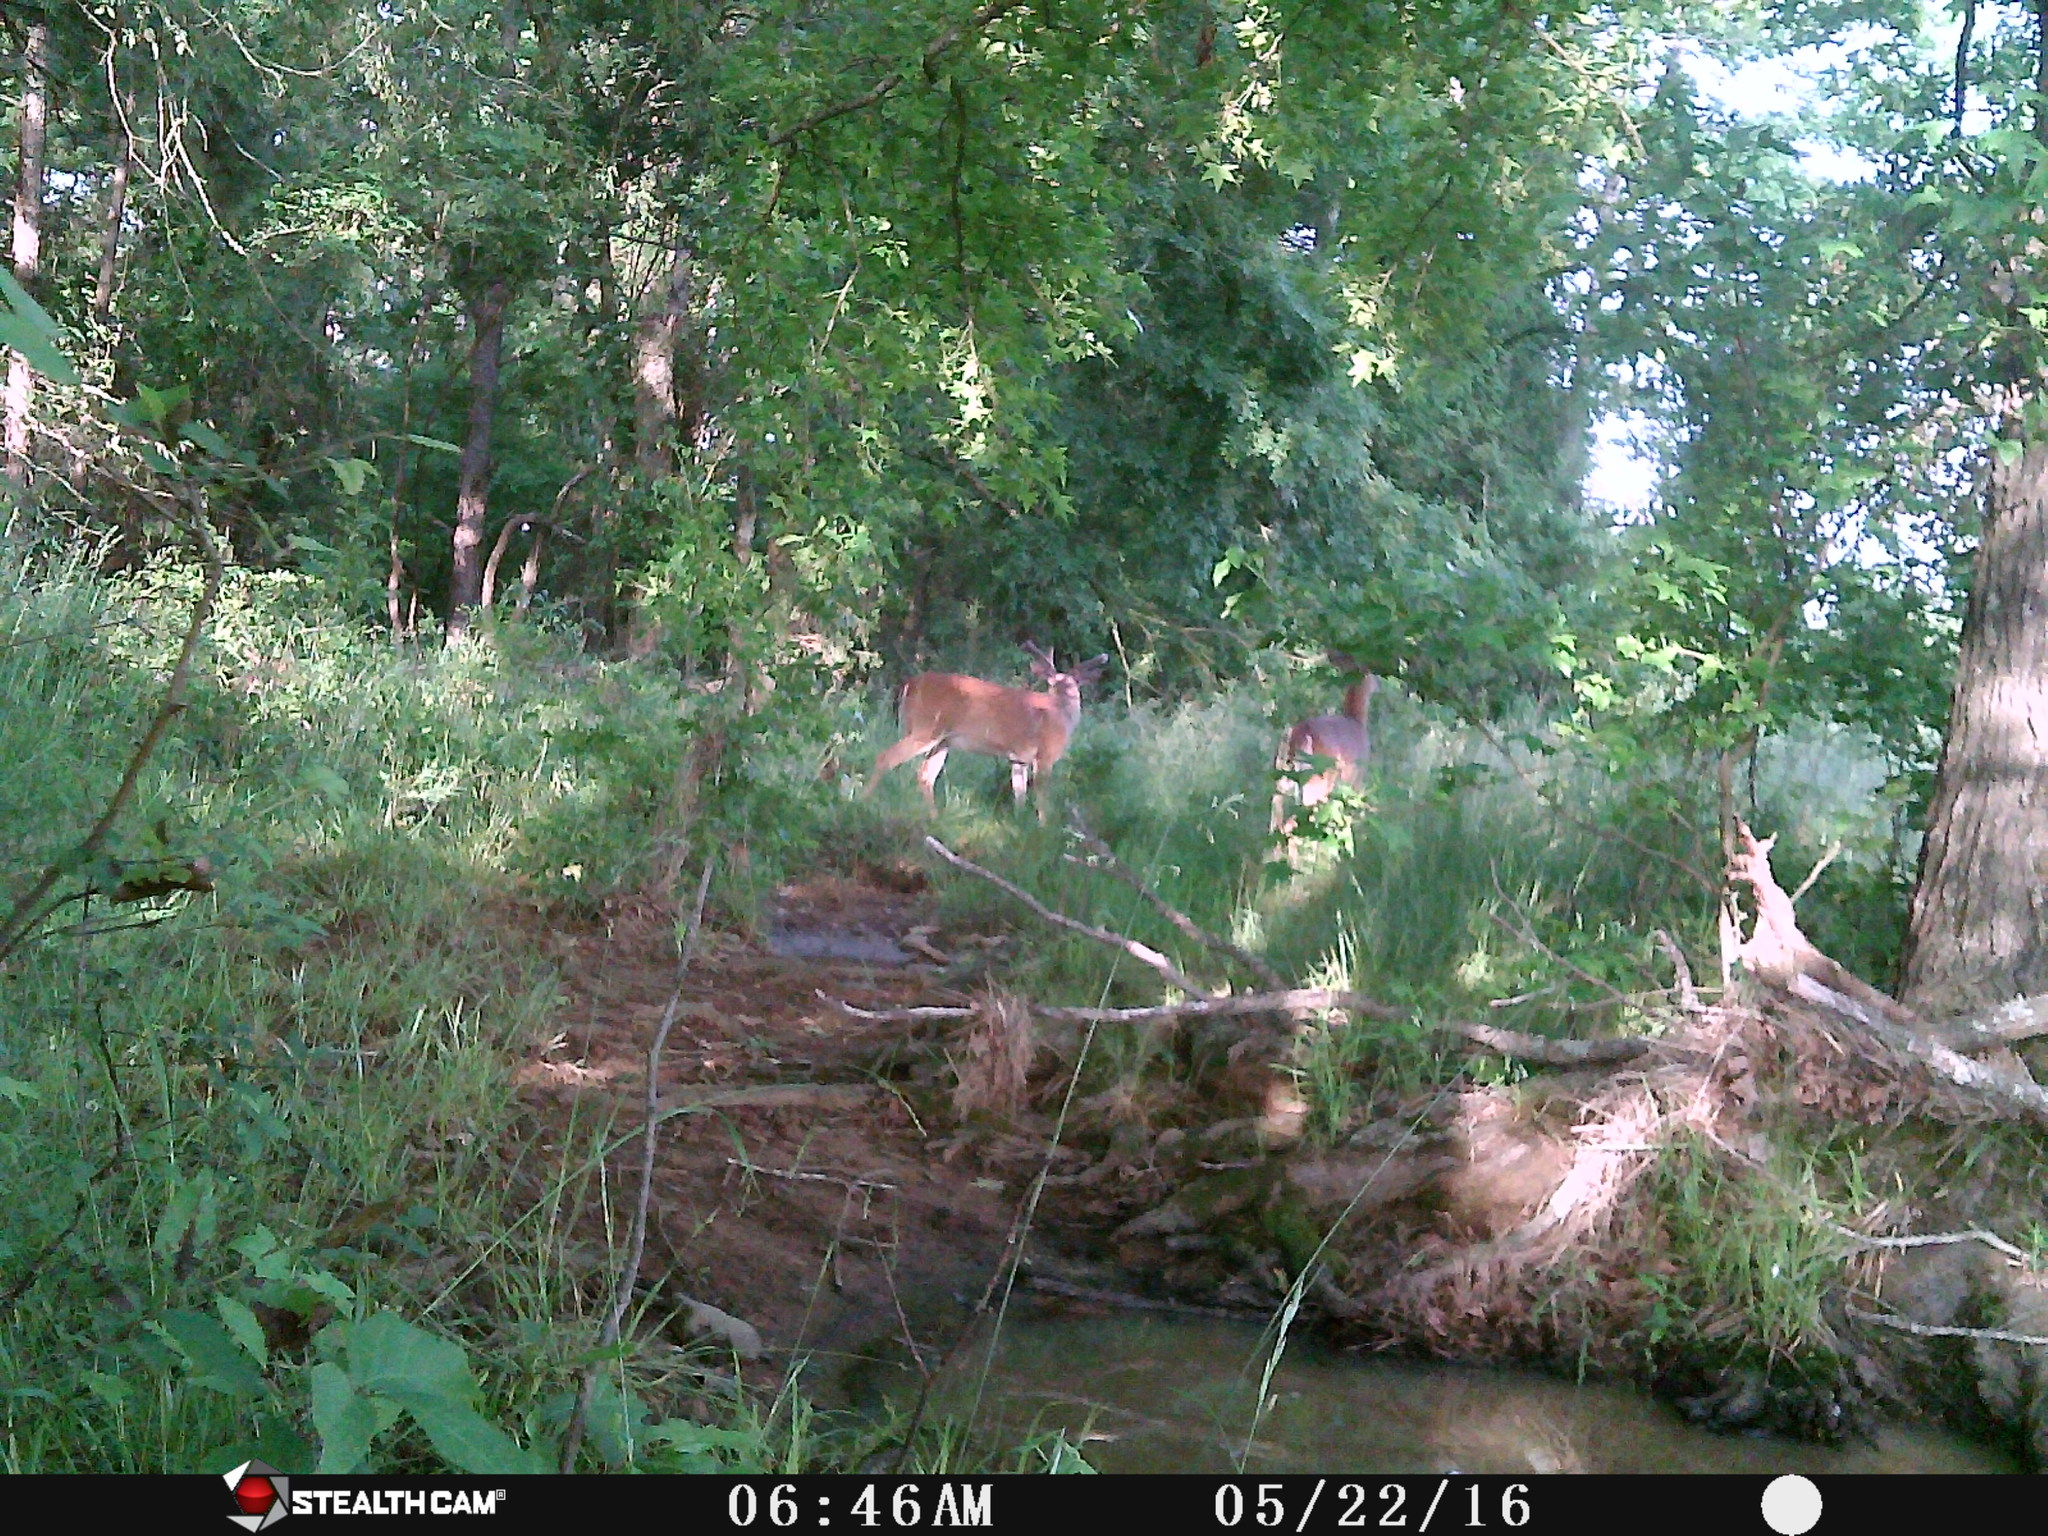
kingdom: Animalia
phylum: Chordata
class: Mammalia
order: Artiodactyla
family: Cervidae
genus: Odocoileus
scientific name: Odocoileus virginianus
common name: White-tailed deer
